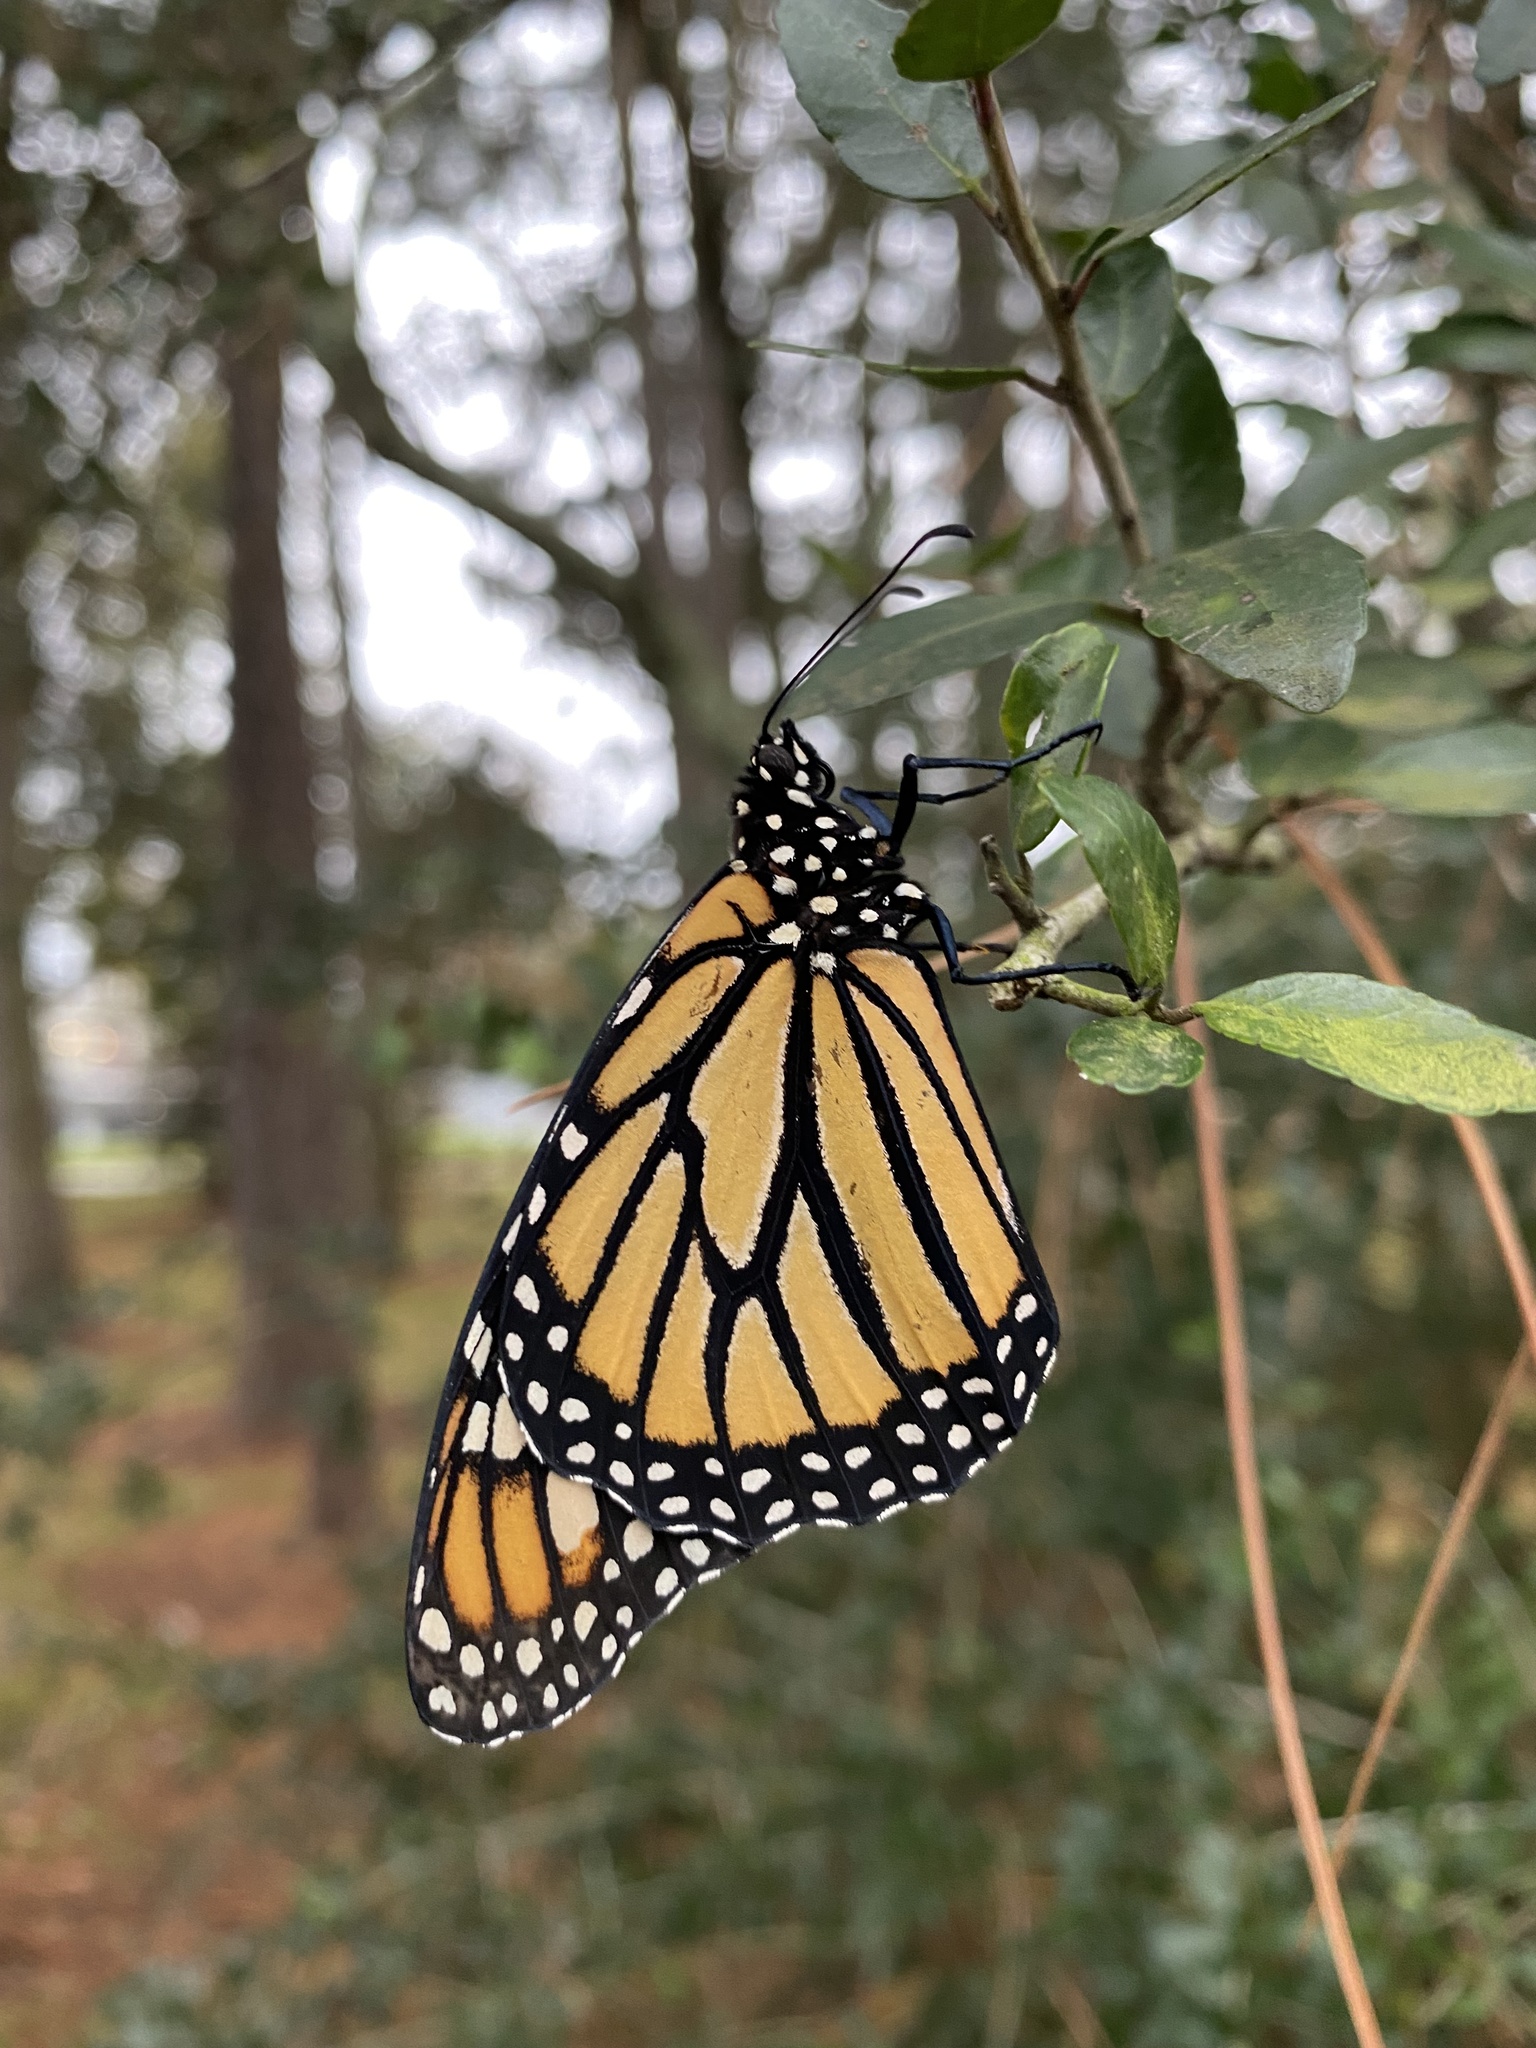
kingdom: Animalia
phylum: Arthropoda
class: Insecta
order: Lepidoptera
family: Nymphalidae
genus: Danaus
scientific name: Danaus plexippus
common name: Monarch
